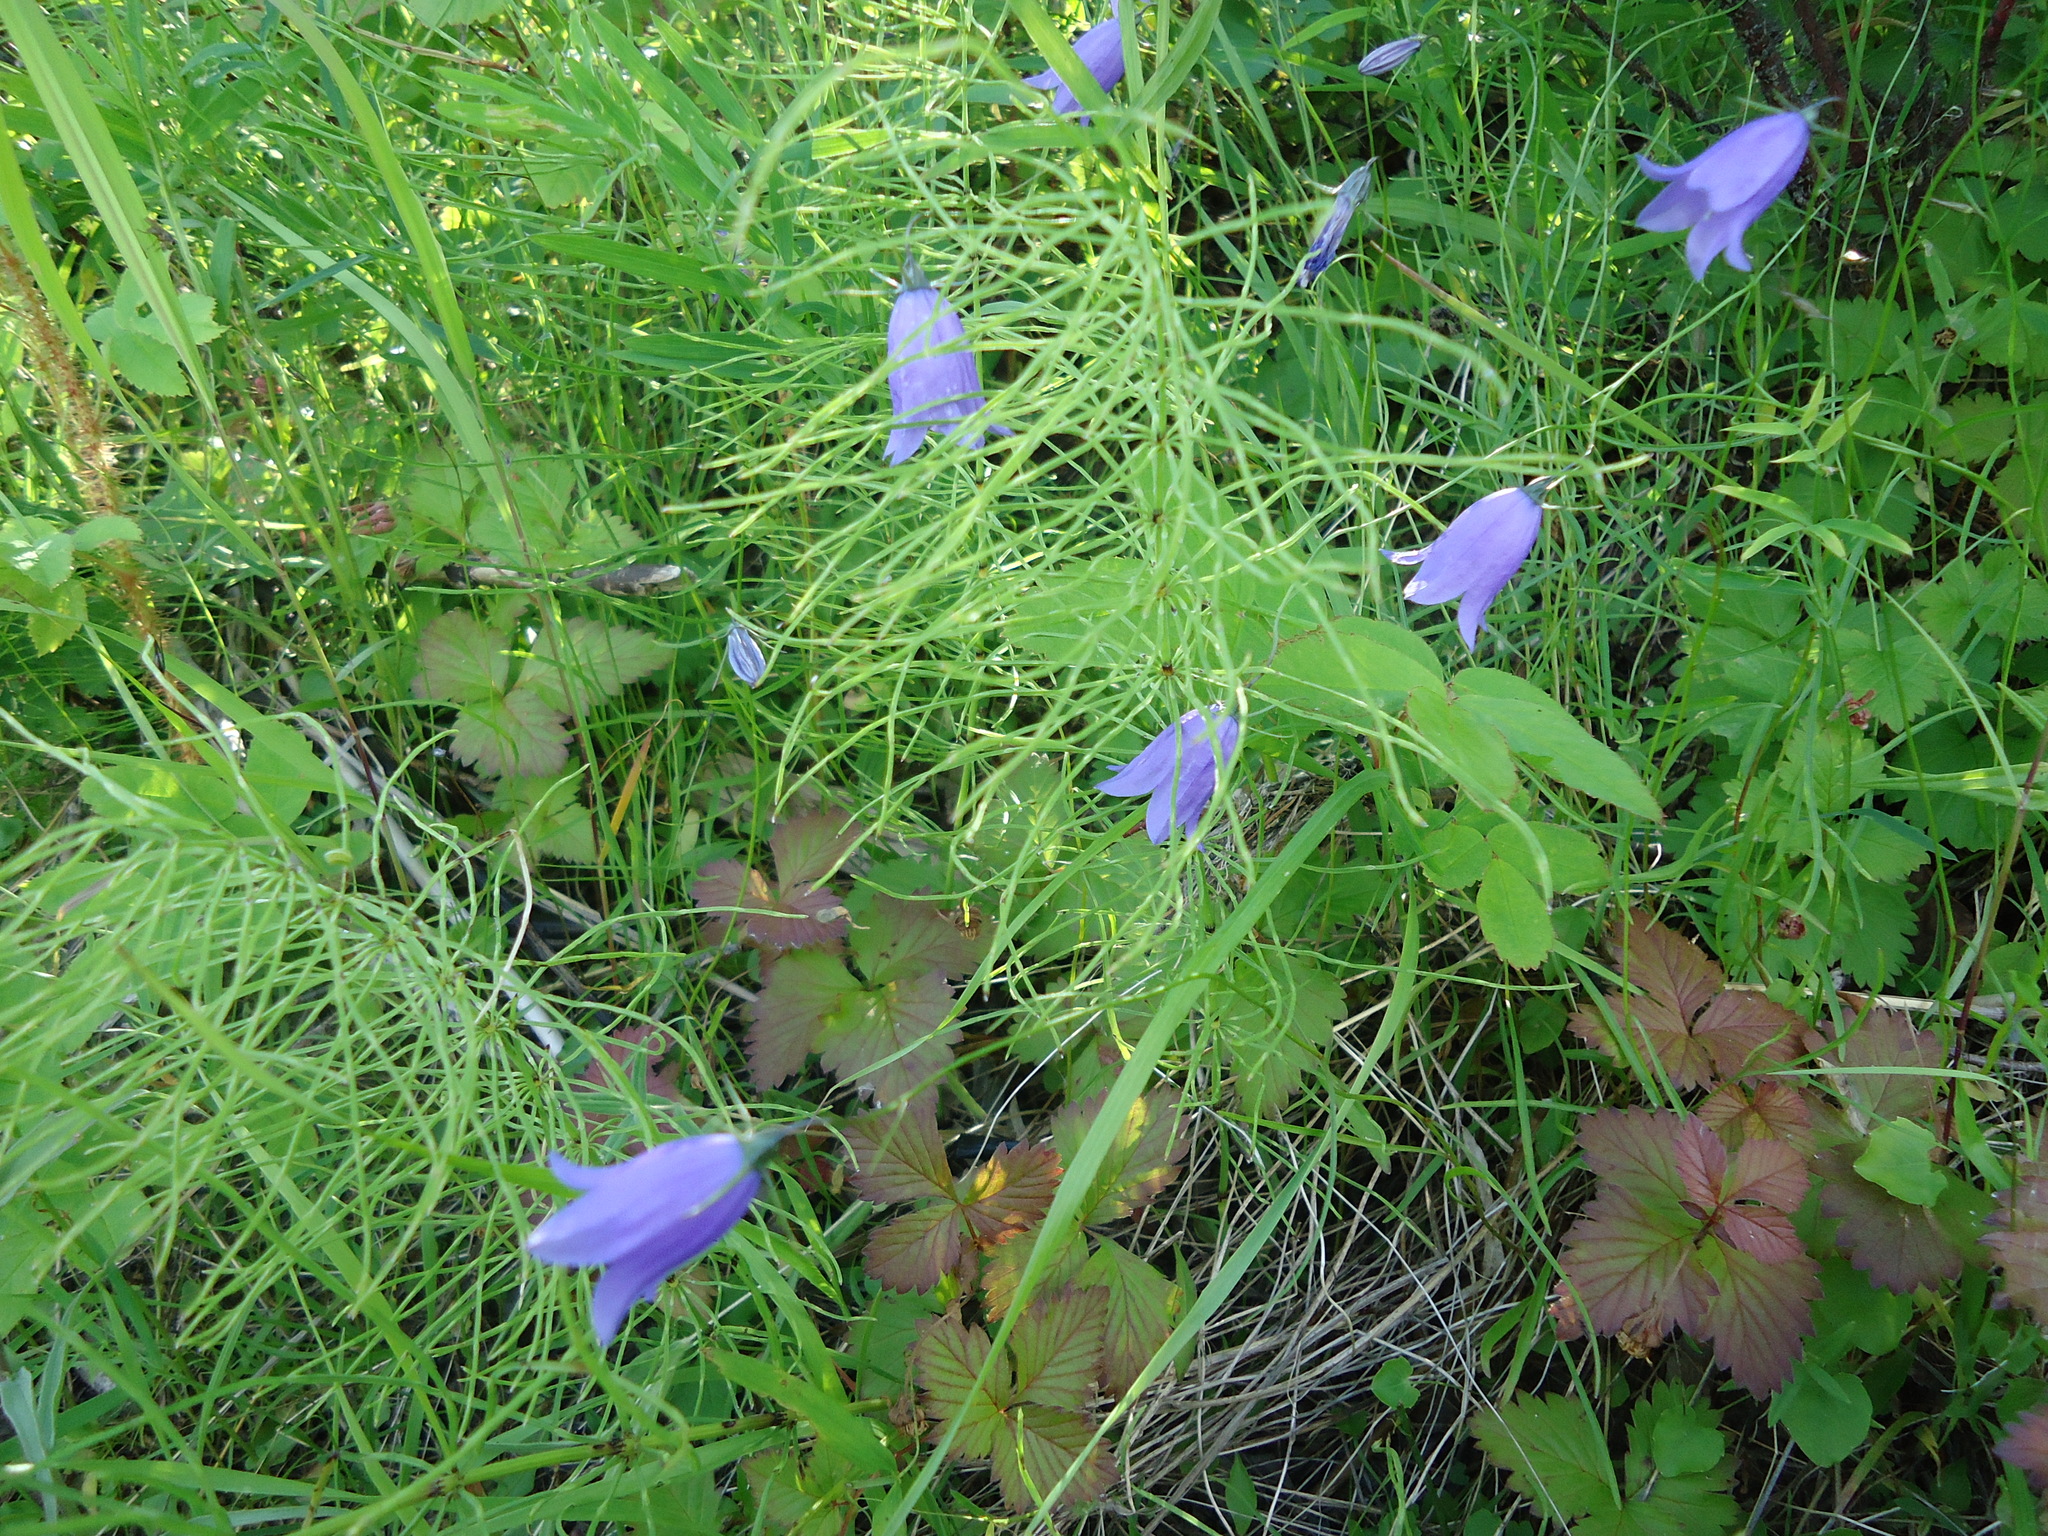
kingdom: Plantae
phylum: Tracheophyta
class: Magnoliopsida
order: Asterales
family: Campanulaceae
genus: Campanula
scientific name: Campanula rotundifolia
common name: Harebell
